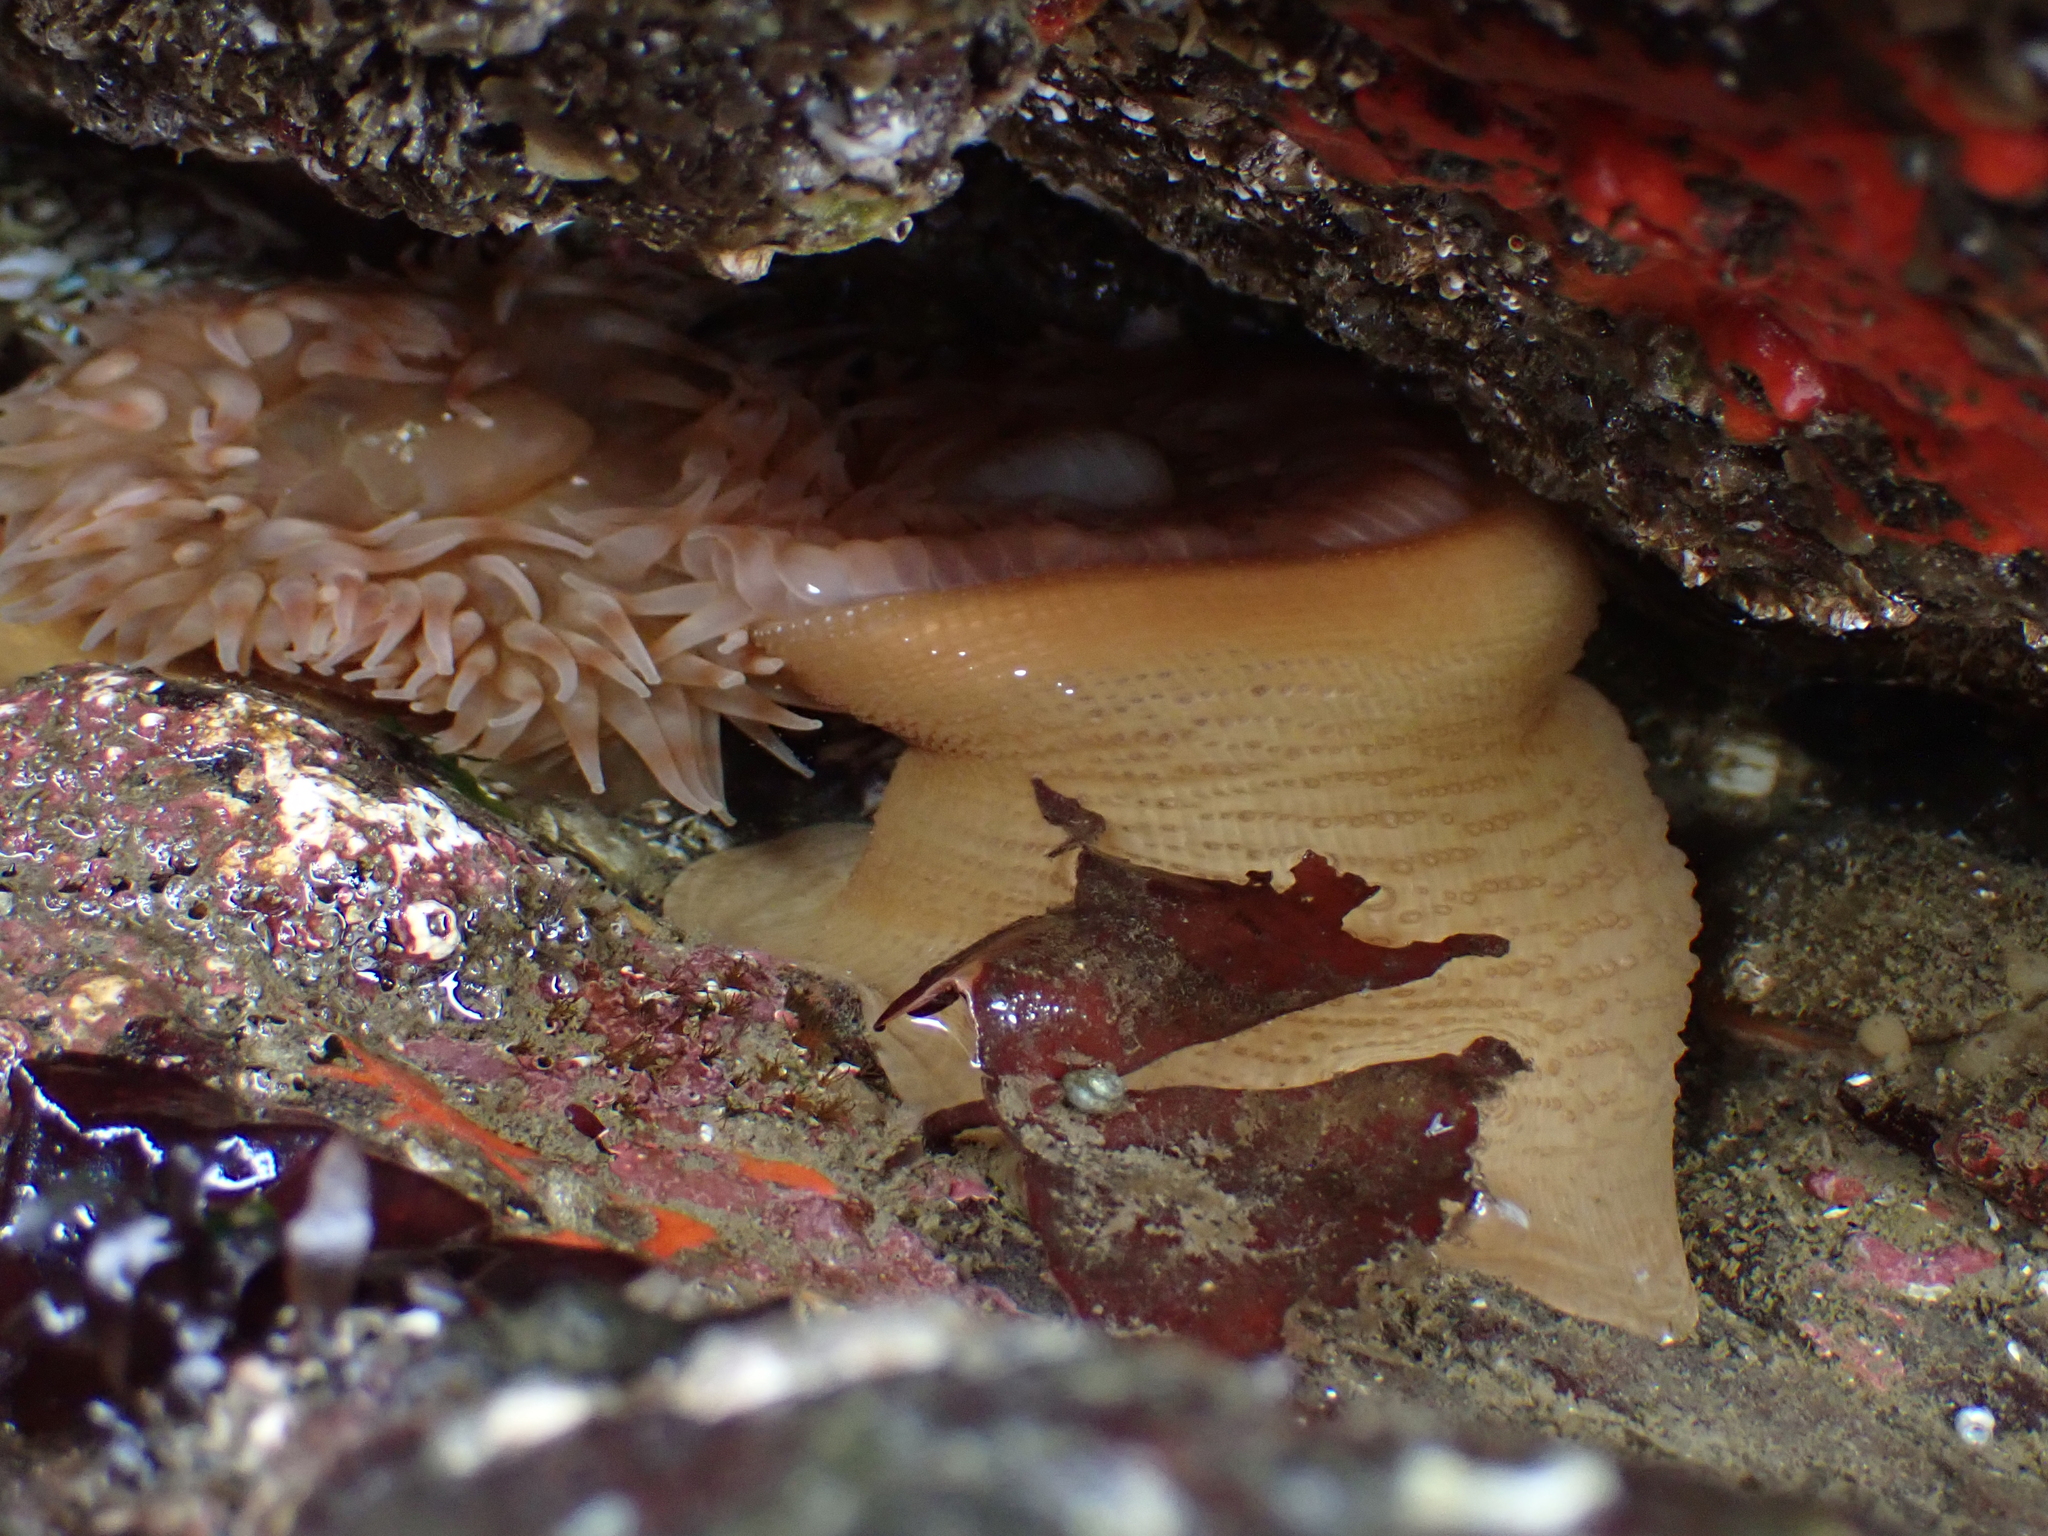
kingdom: Animalia
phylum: Cnidaria
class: Anthozoa
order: Actiniaria
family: Actiniidae
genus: Urticina
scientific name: Urticina grebelnyi
